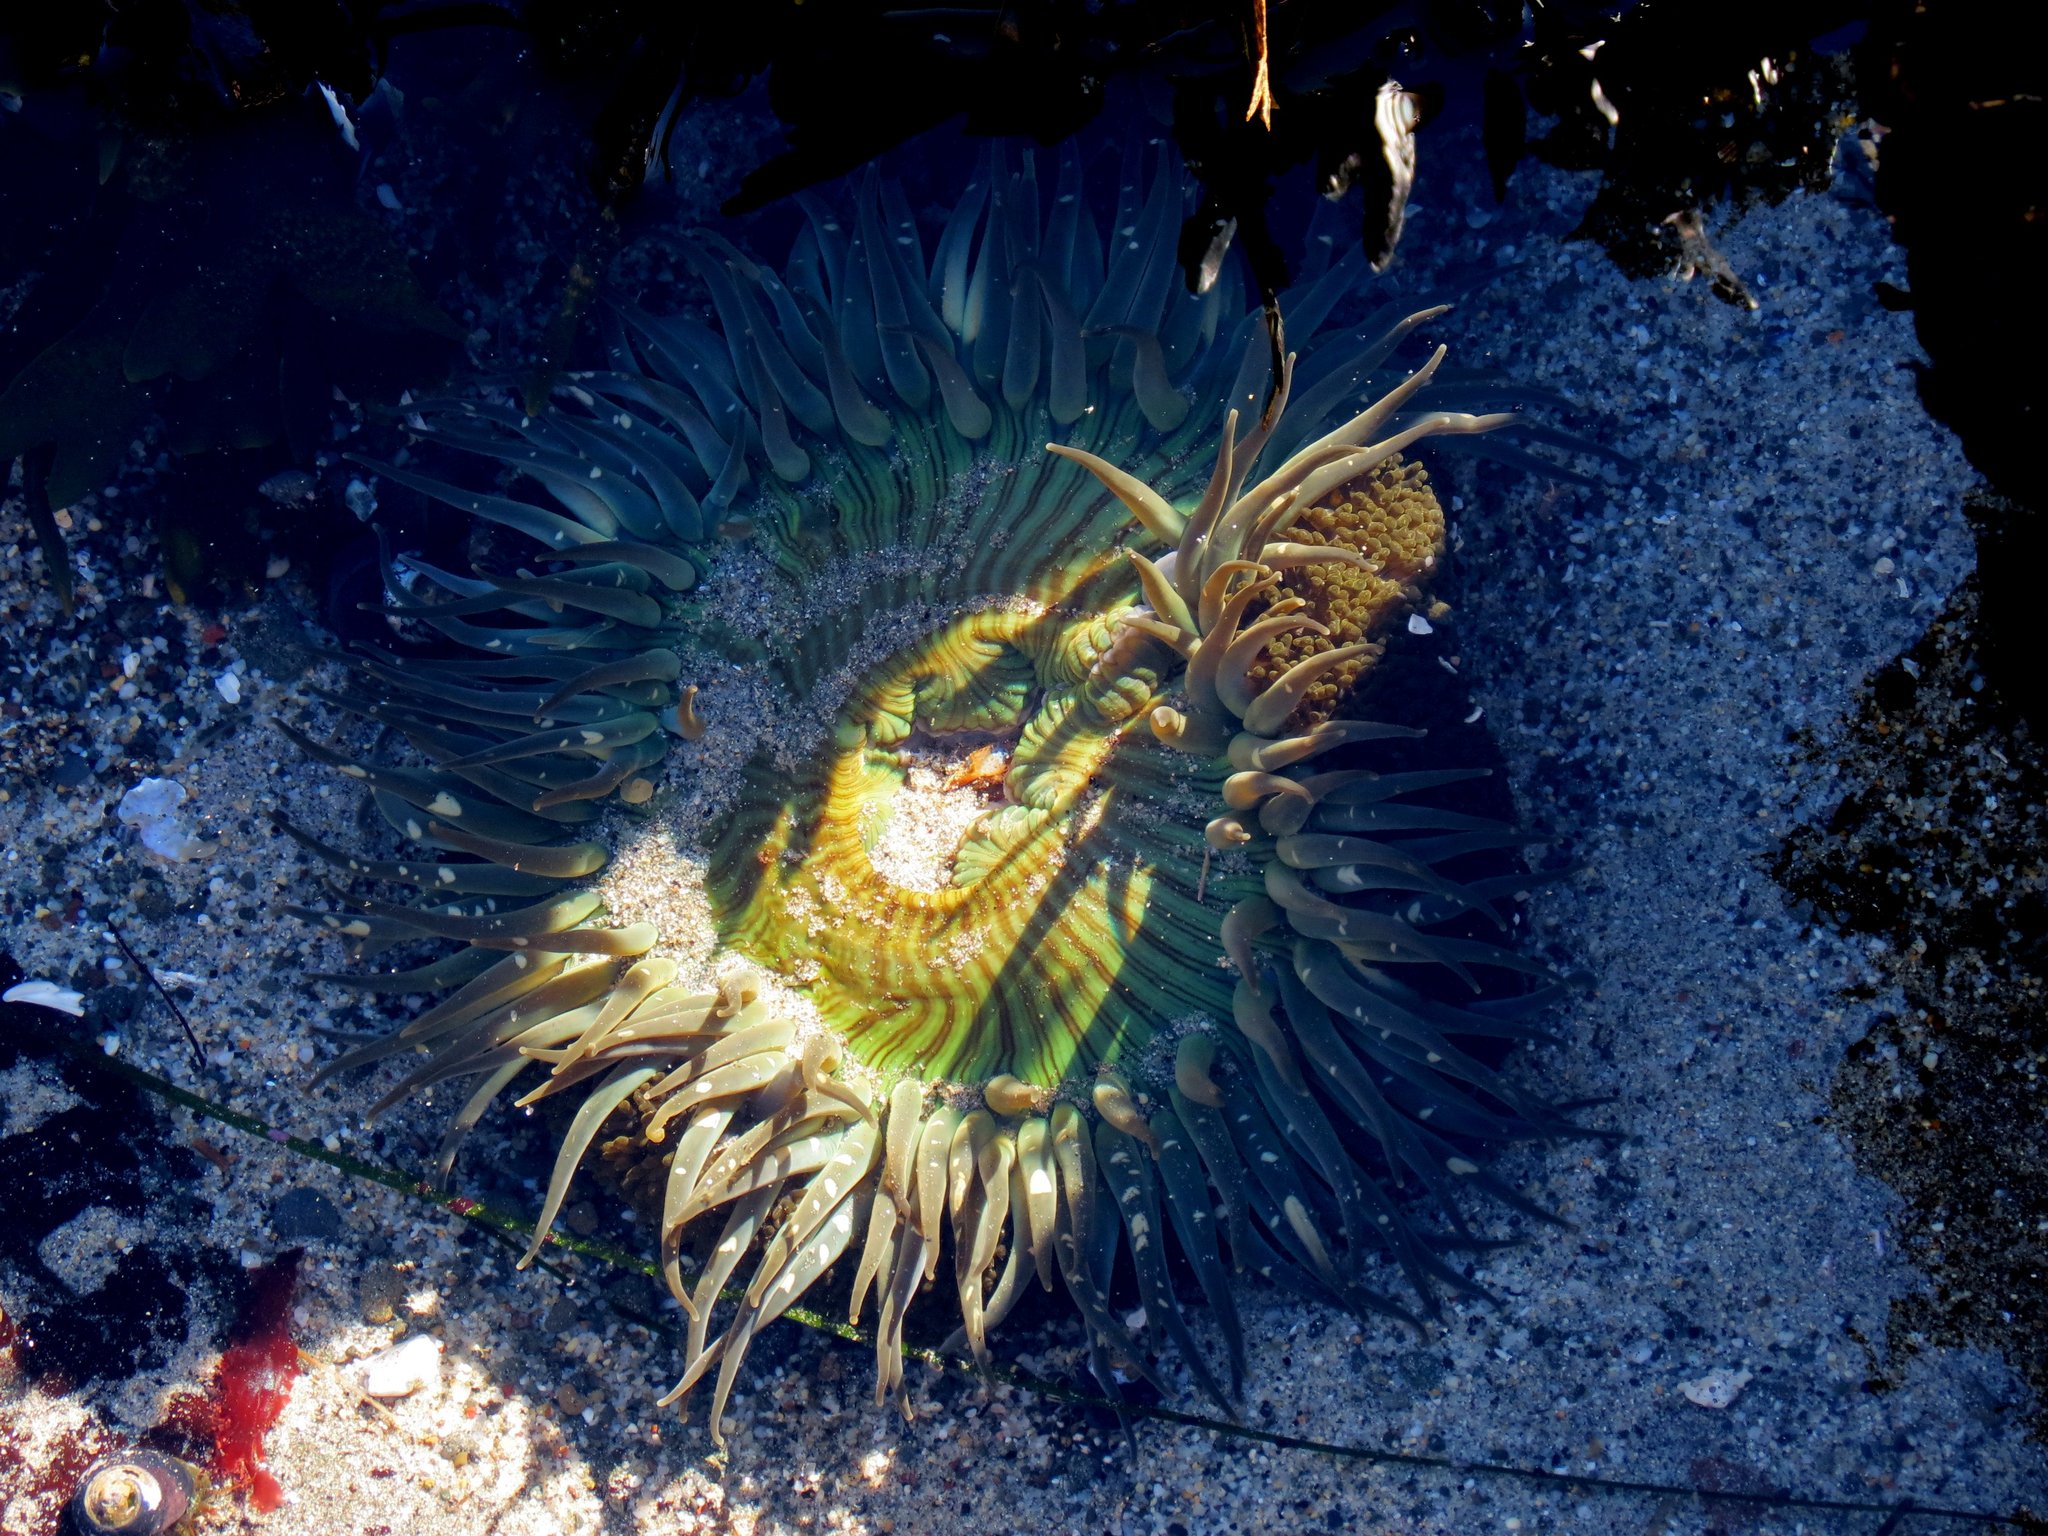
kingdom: Animalia
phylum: Cnidaria
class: Anthozoa
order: Actiniaria
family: Actiniidae
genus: Anthopleura
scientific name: Anthopleura sola
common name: Sun anemone
